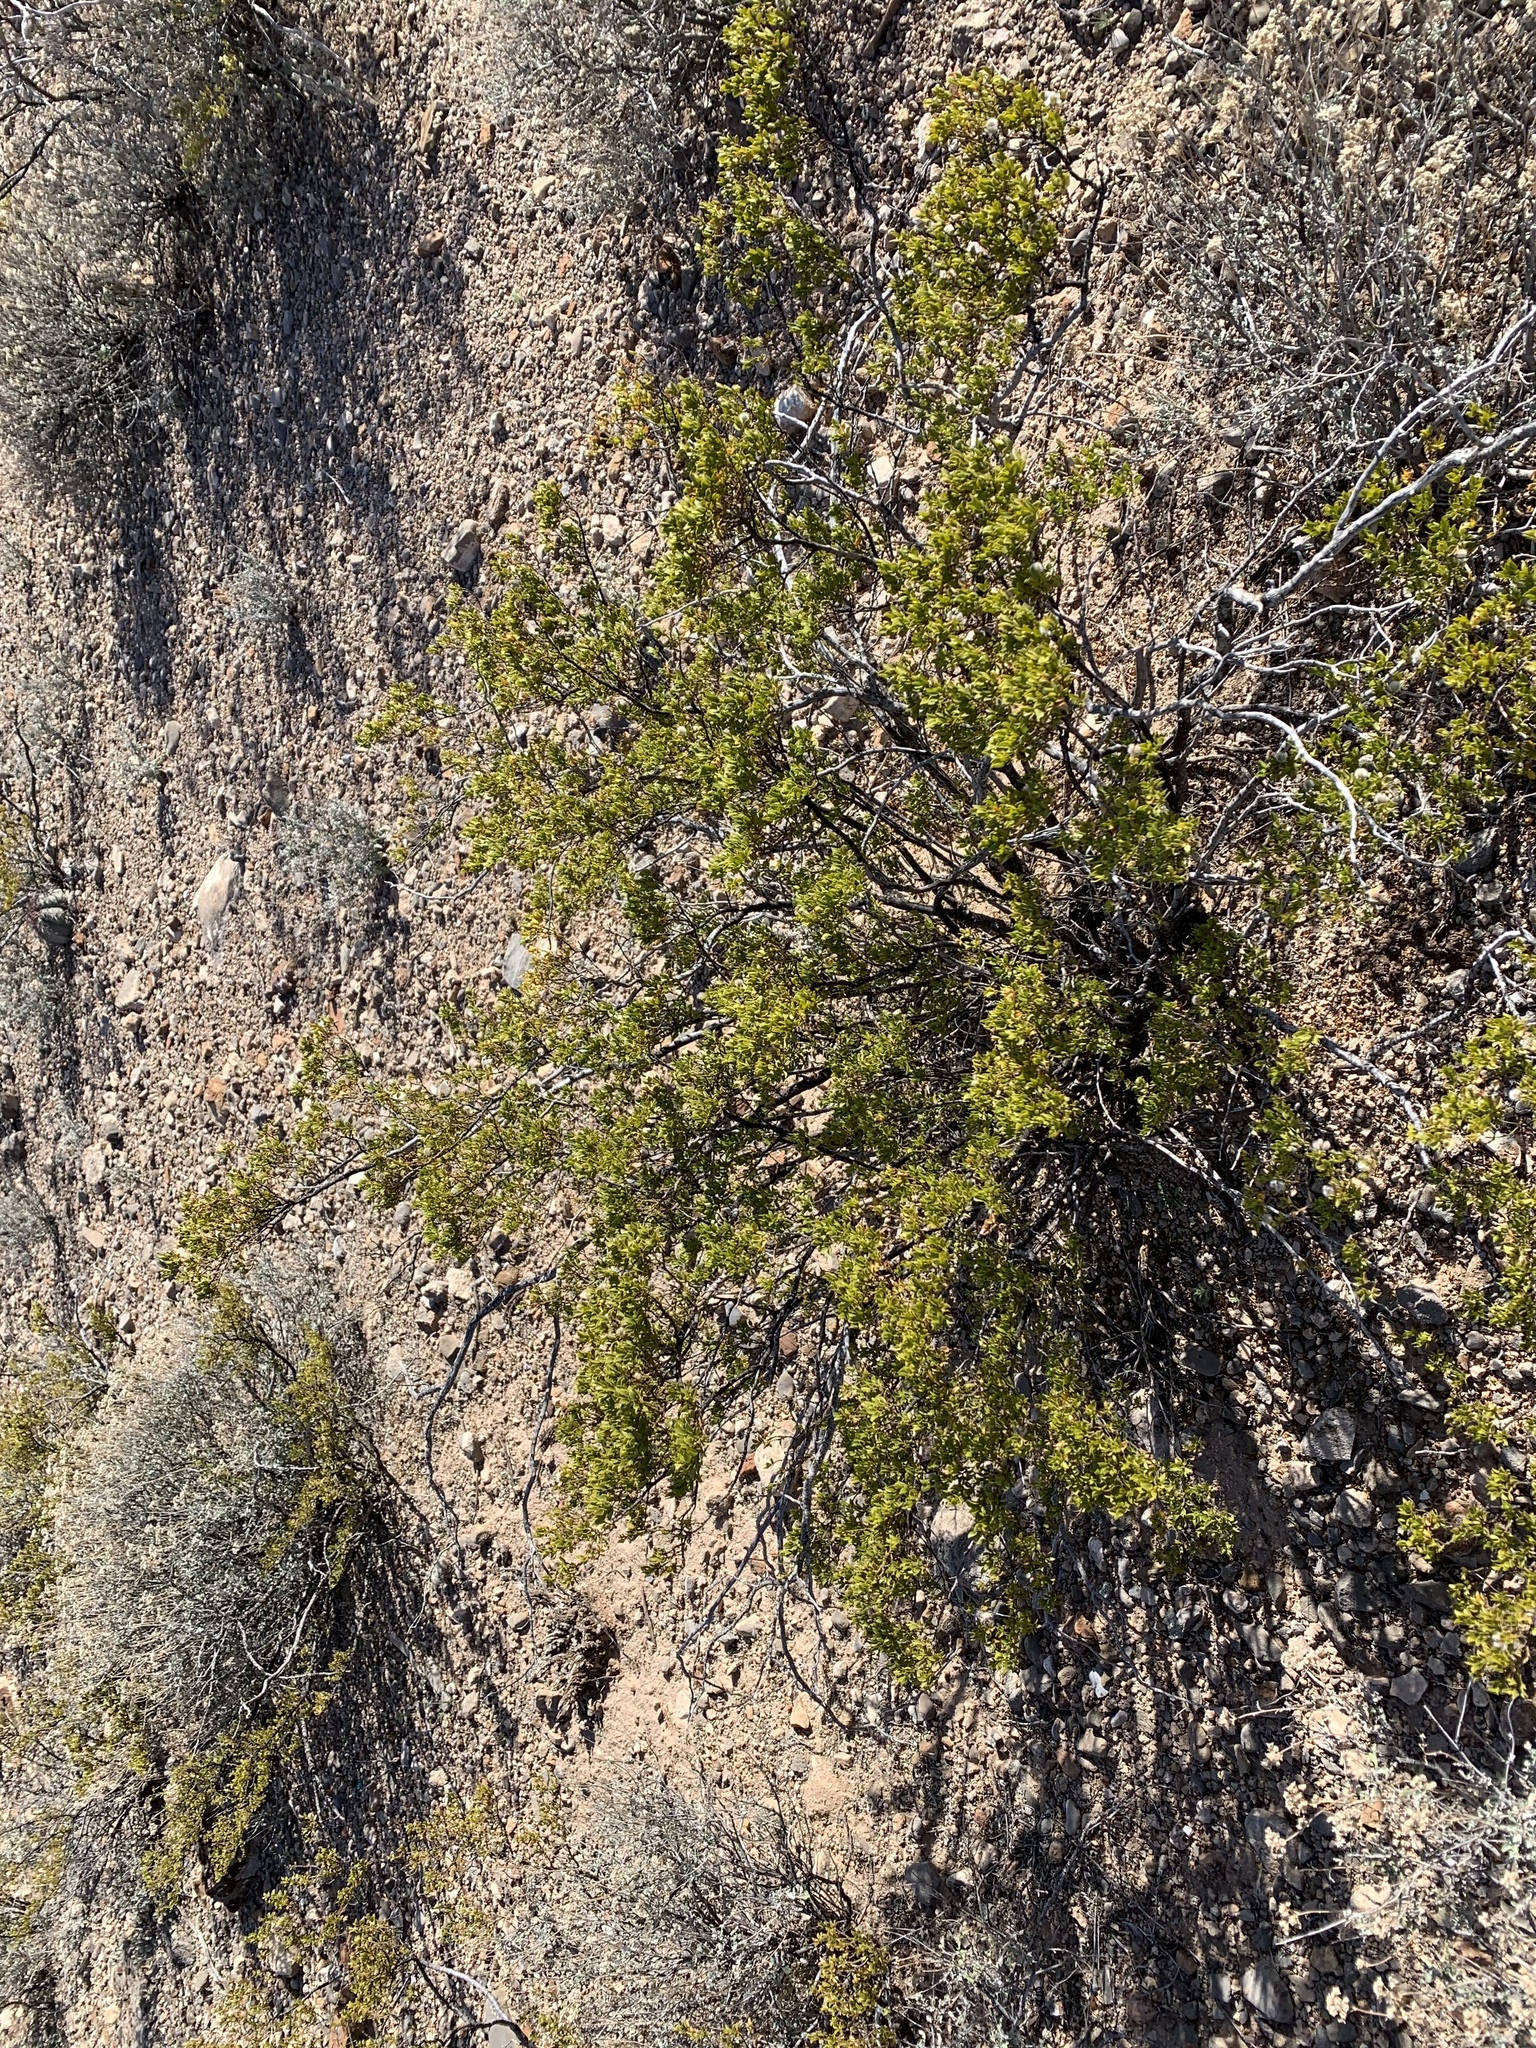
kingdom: Plantae
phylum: Tracheophyta
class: Magnoliopsida
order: Zygophyllales
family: Zygophyllaceae
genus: Larrea
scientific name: Larrea tridentata
